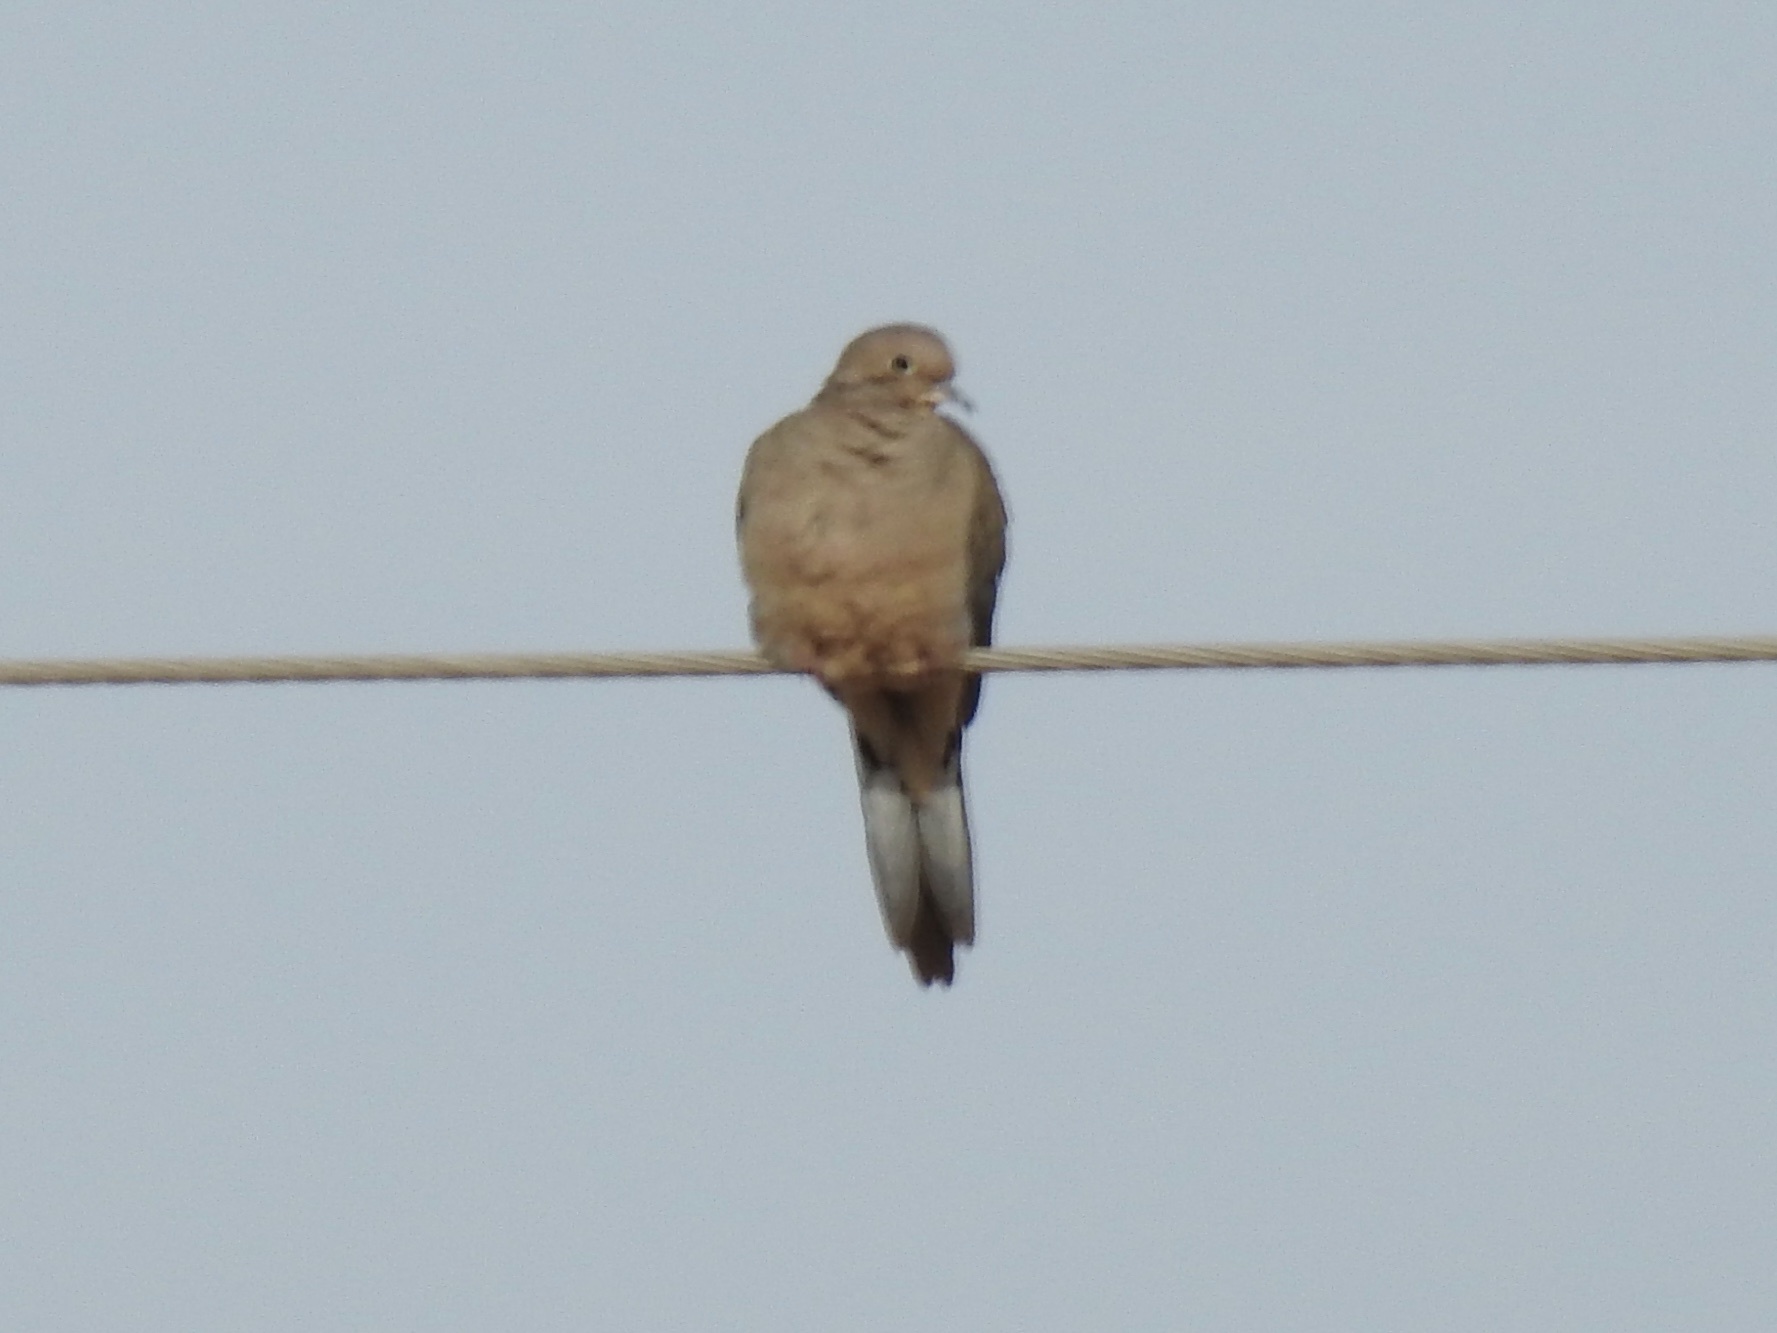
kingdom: Animalia
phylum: Chordata
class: Aves
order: Columbiformes
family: Columbidae
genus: Zenaida
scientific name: Zenaida macroura
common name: Mourning dove
